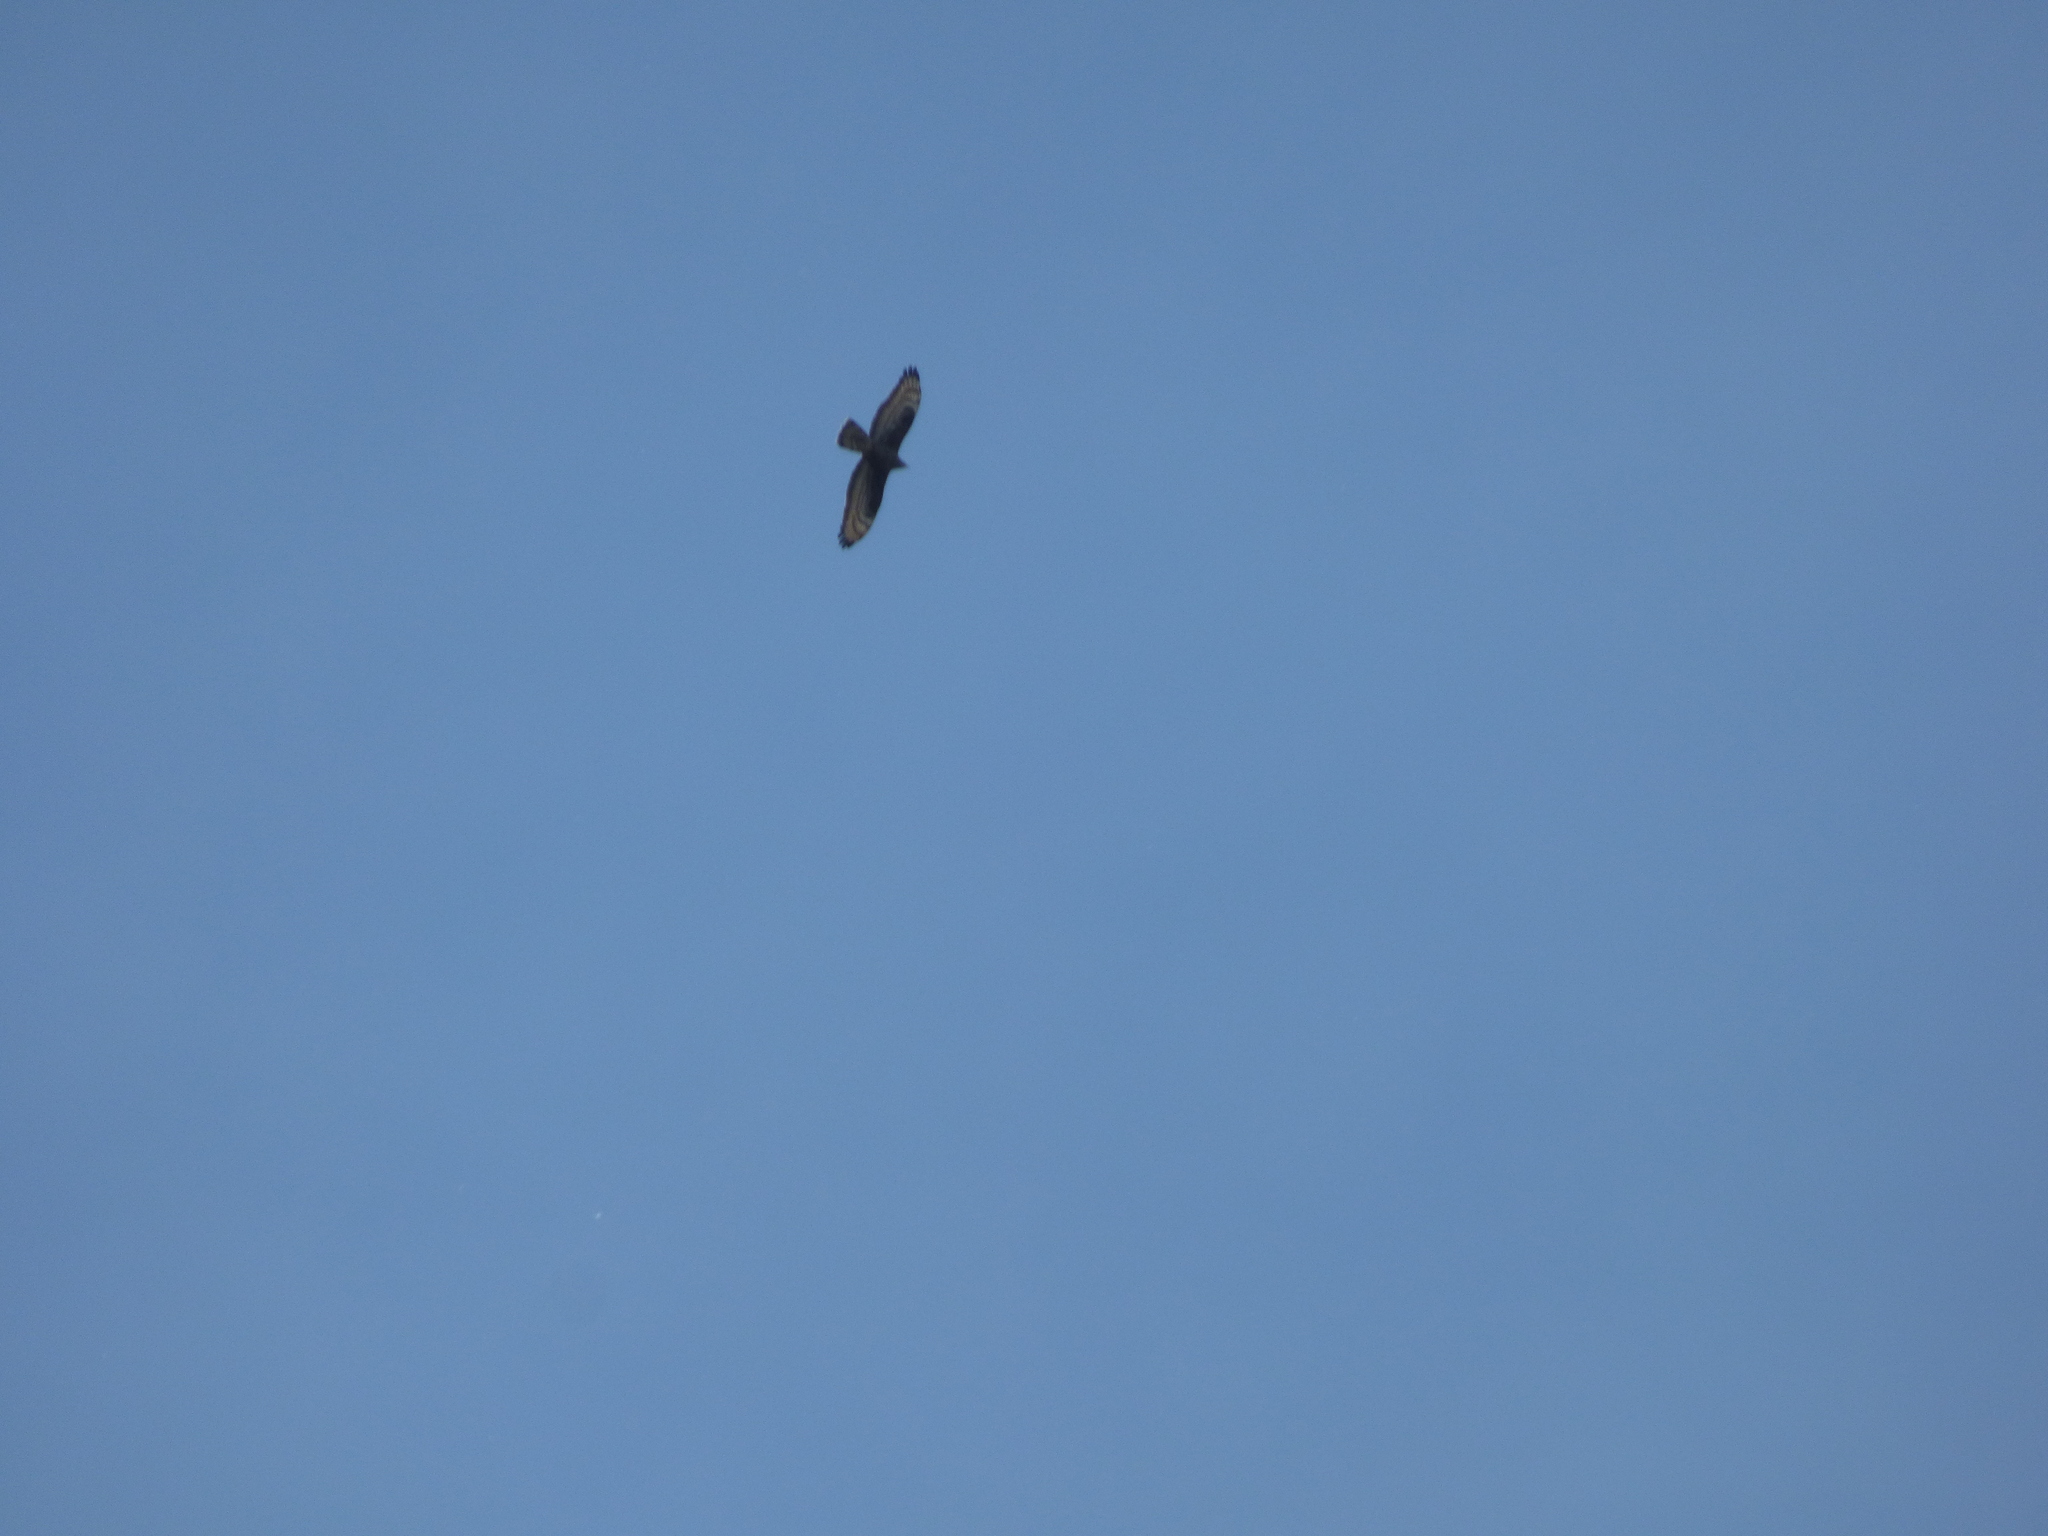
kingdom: Animalia
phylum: Chordata
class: Aves
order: Accipitriformes
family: Accipitridae
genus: Pernis
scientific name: Pernis apivorus
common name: European honey buzzard
